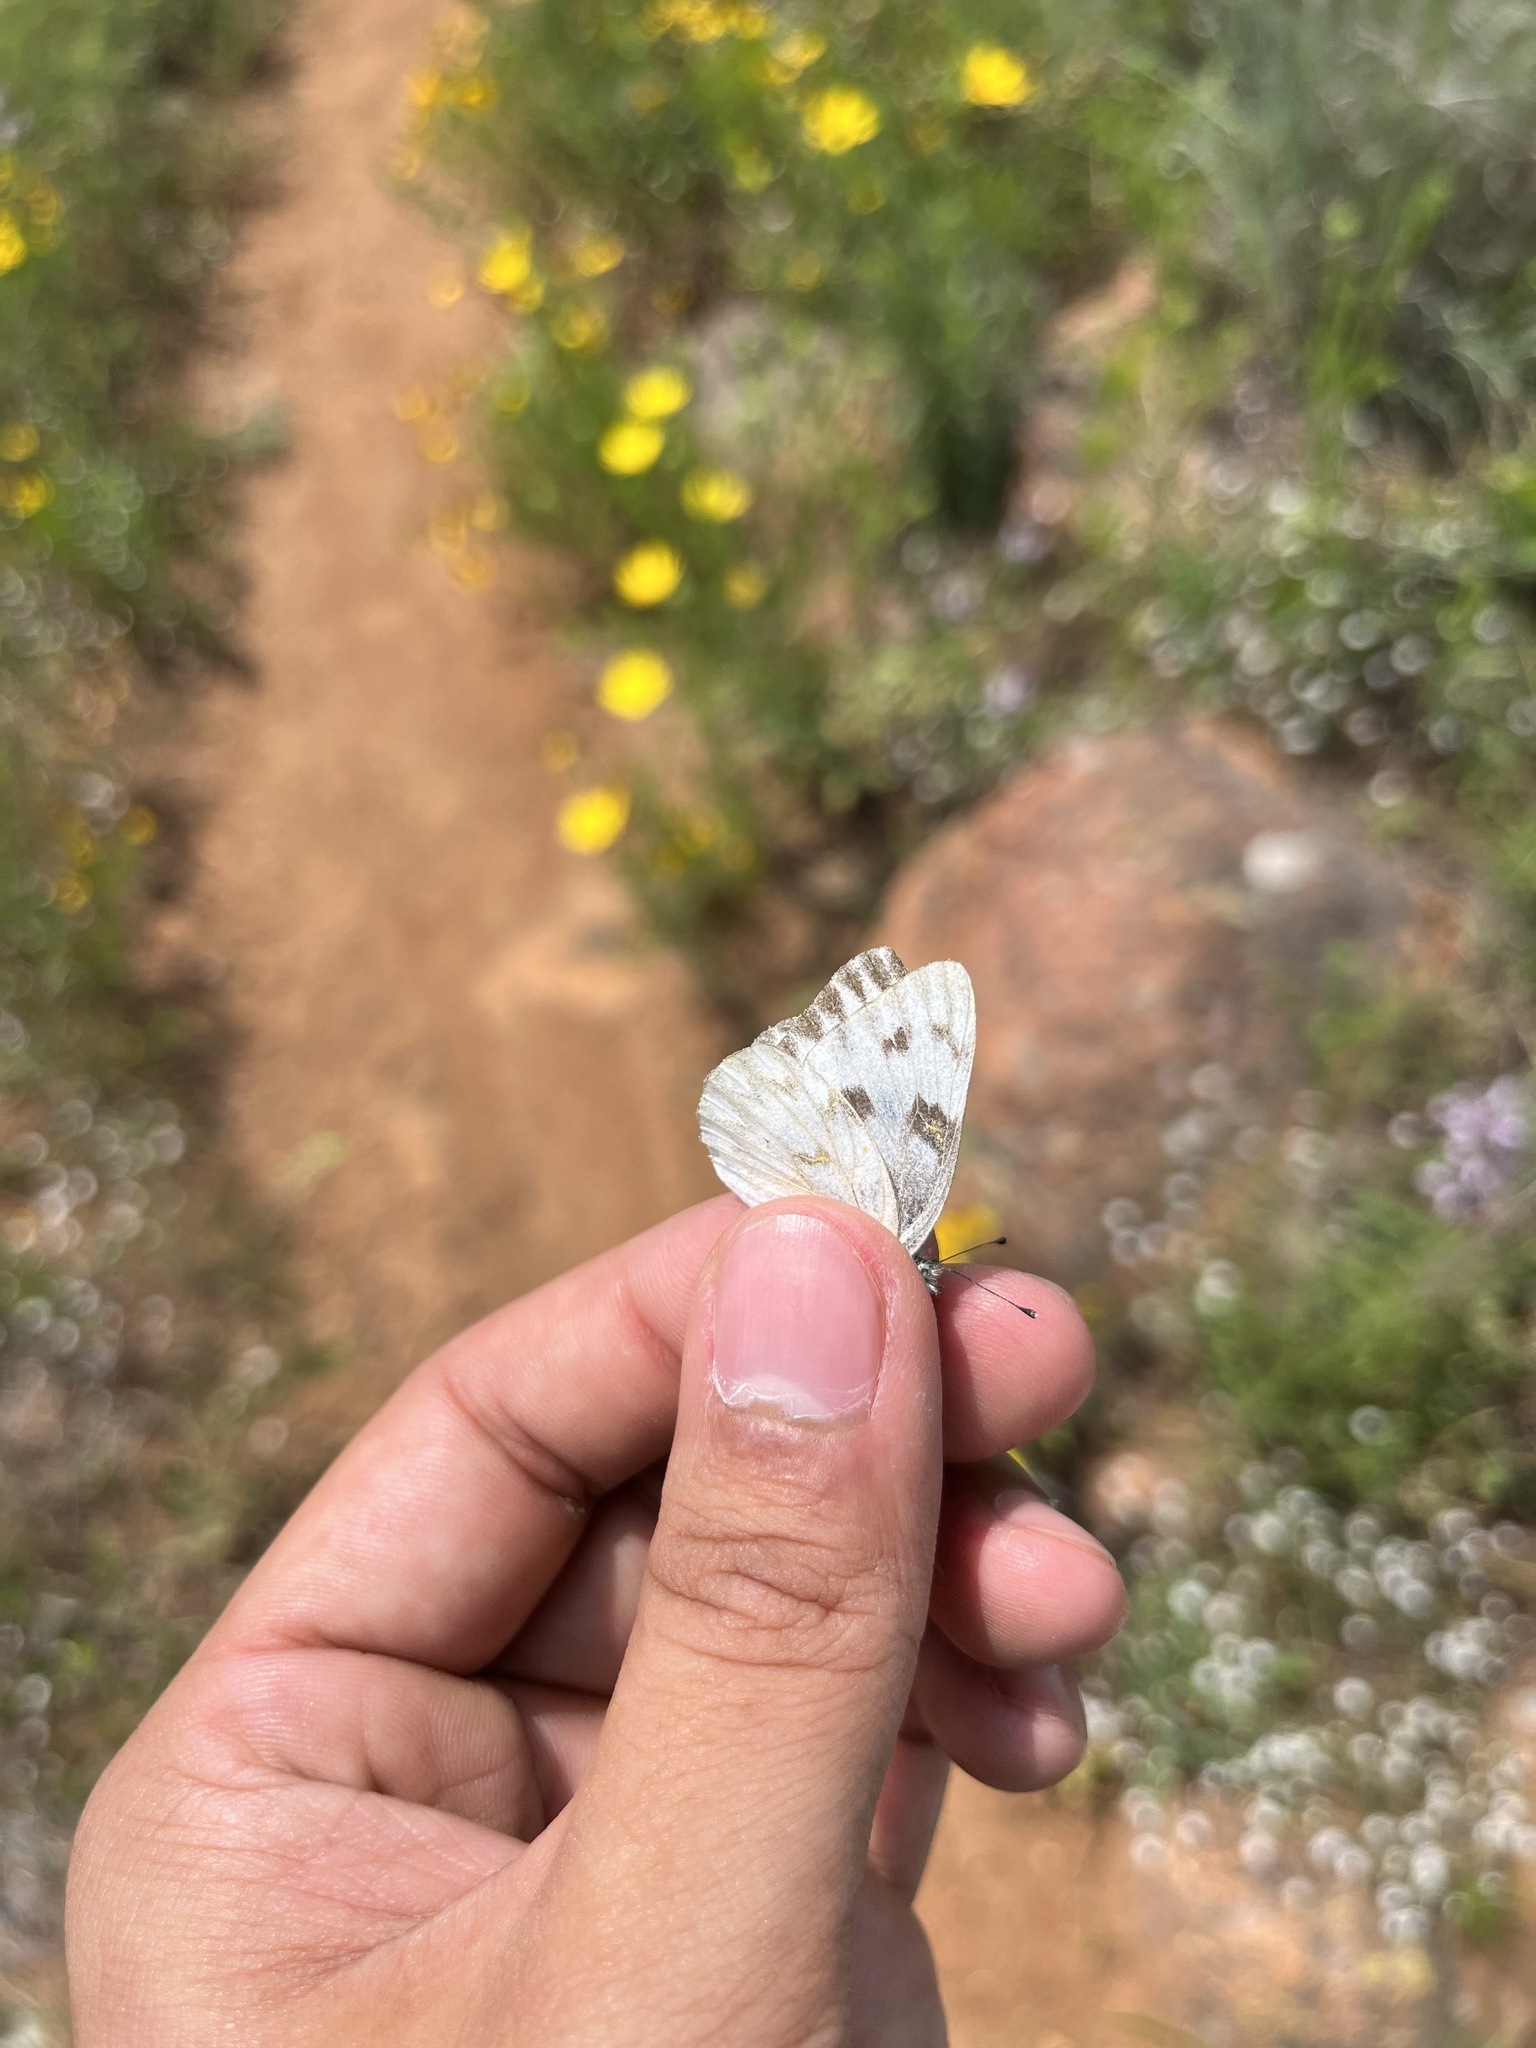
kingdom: Animalia
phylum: Arthropoda
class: Insecta
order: Lepidoptera
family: Pieridae
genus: Pontia
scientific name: Pontia protodice
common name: Checkered white
